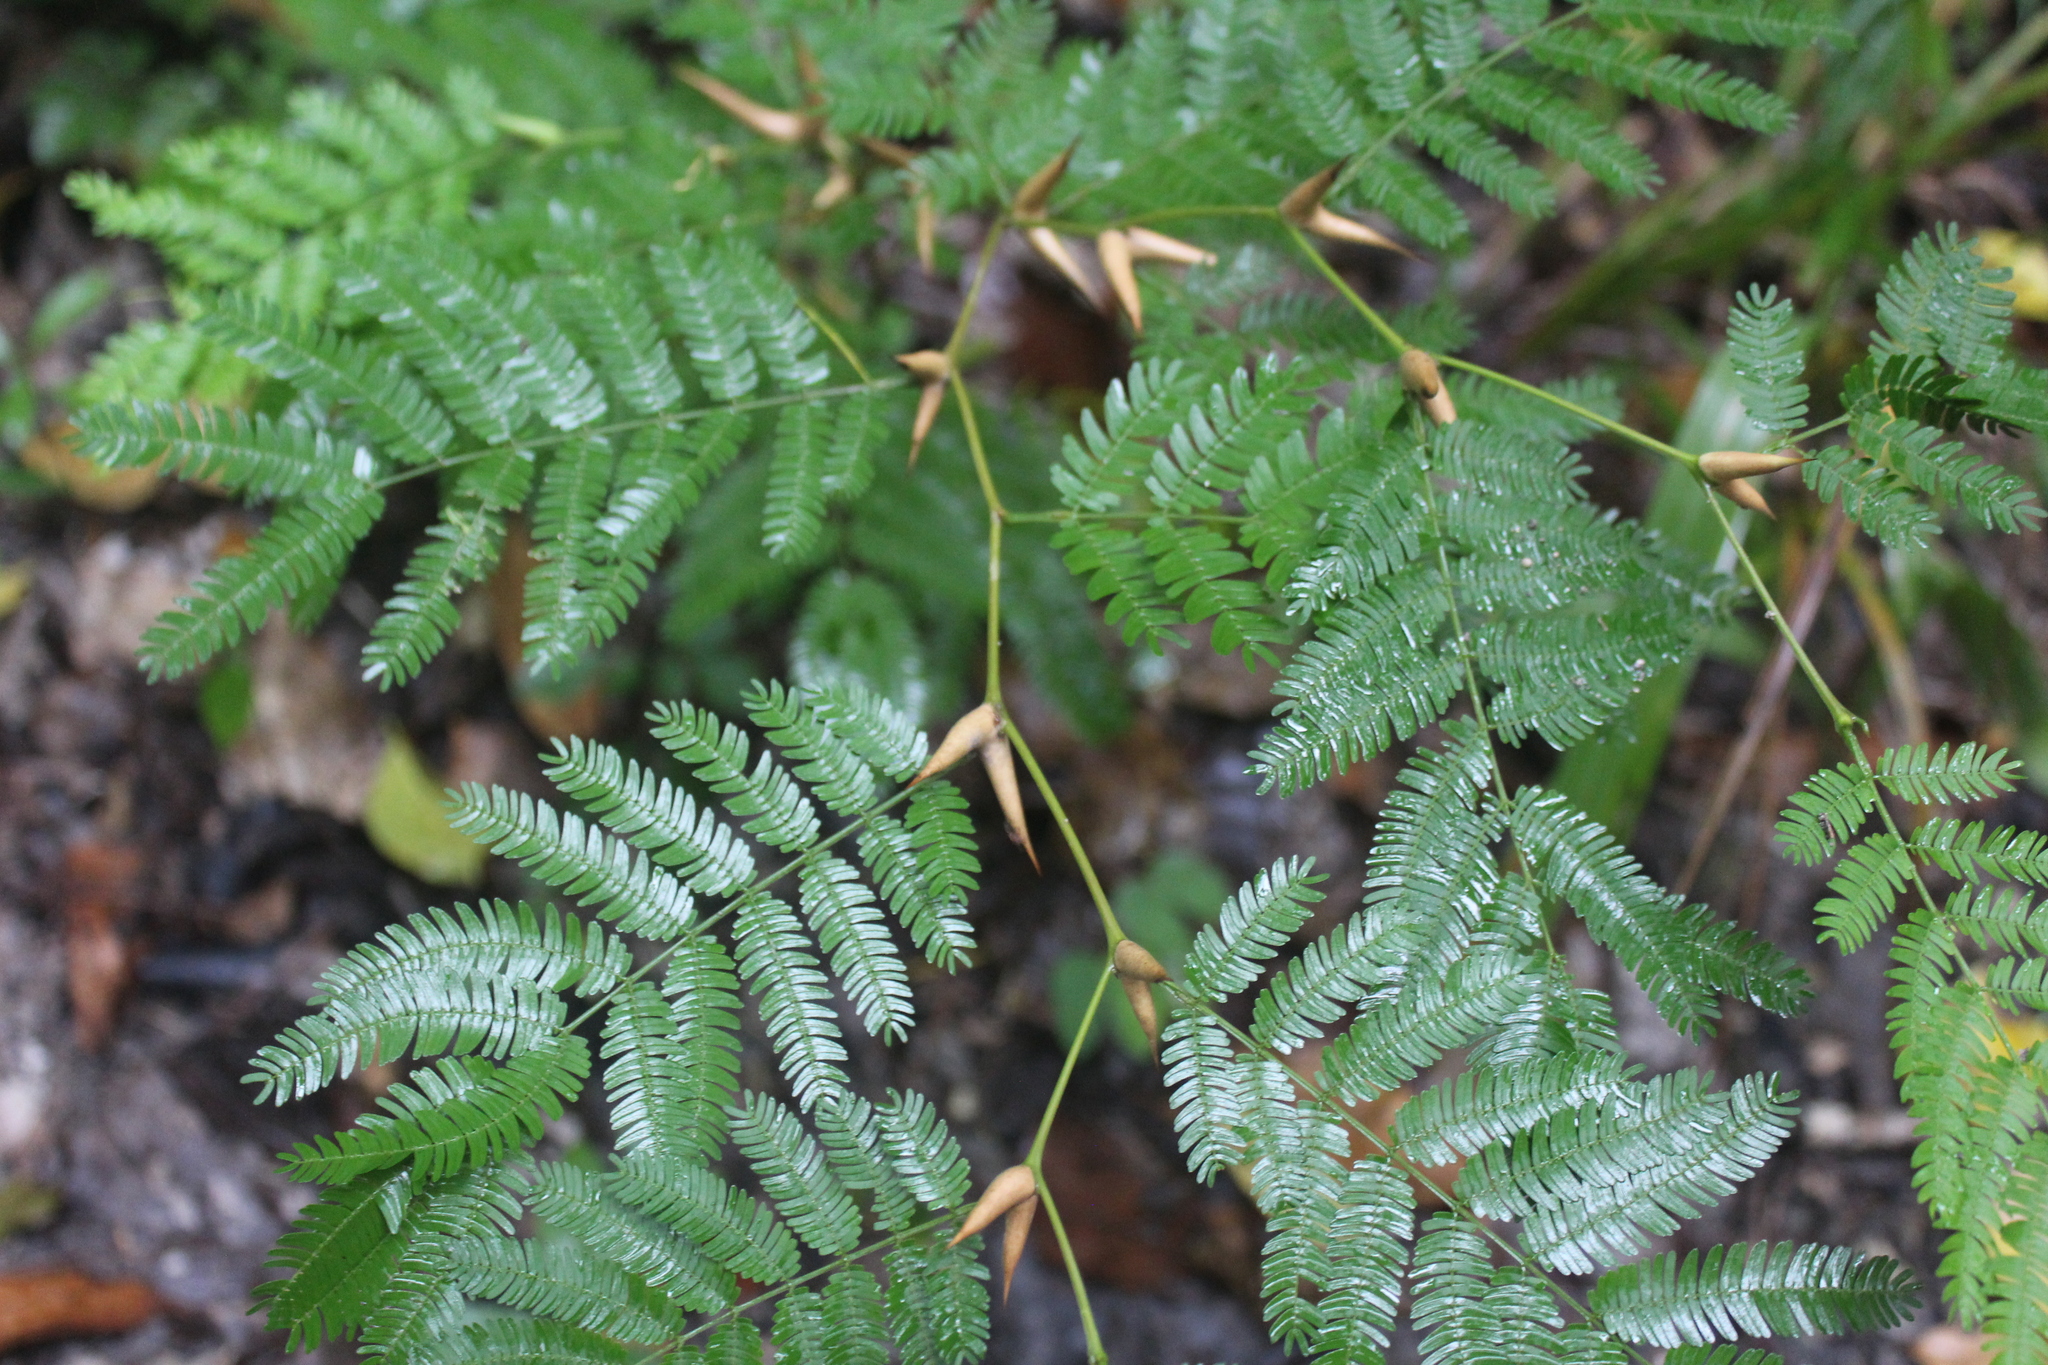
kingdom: Plantae
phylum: Tracheophyta
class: Magnoliopsida
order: Fabales
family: Fabaceae
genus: Vachellia
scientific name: Vachellia cornigera
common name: Bullhorn wattle
